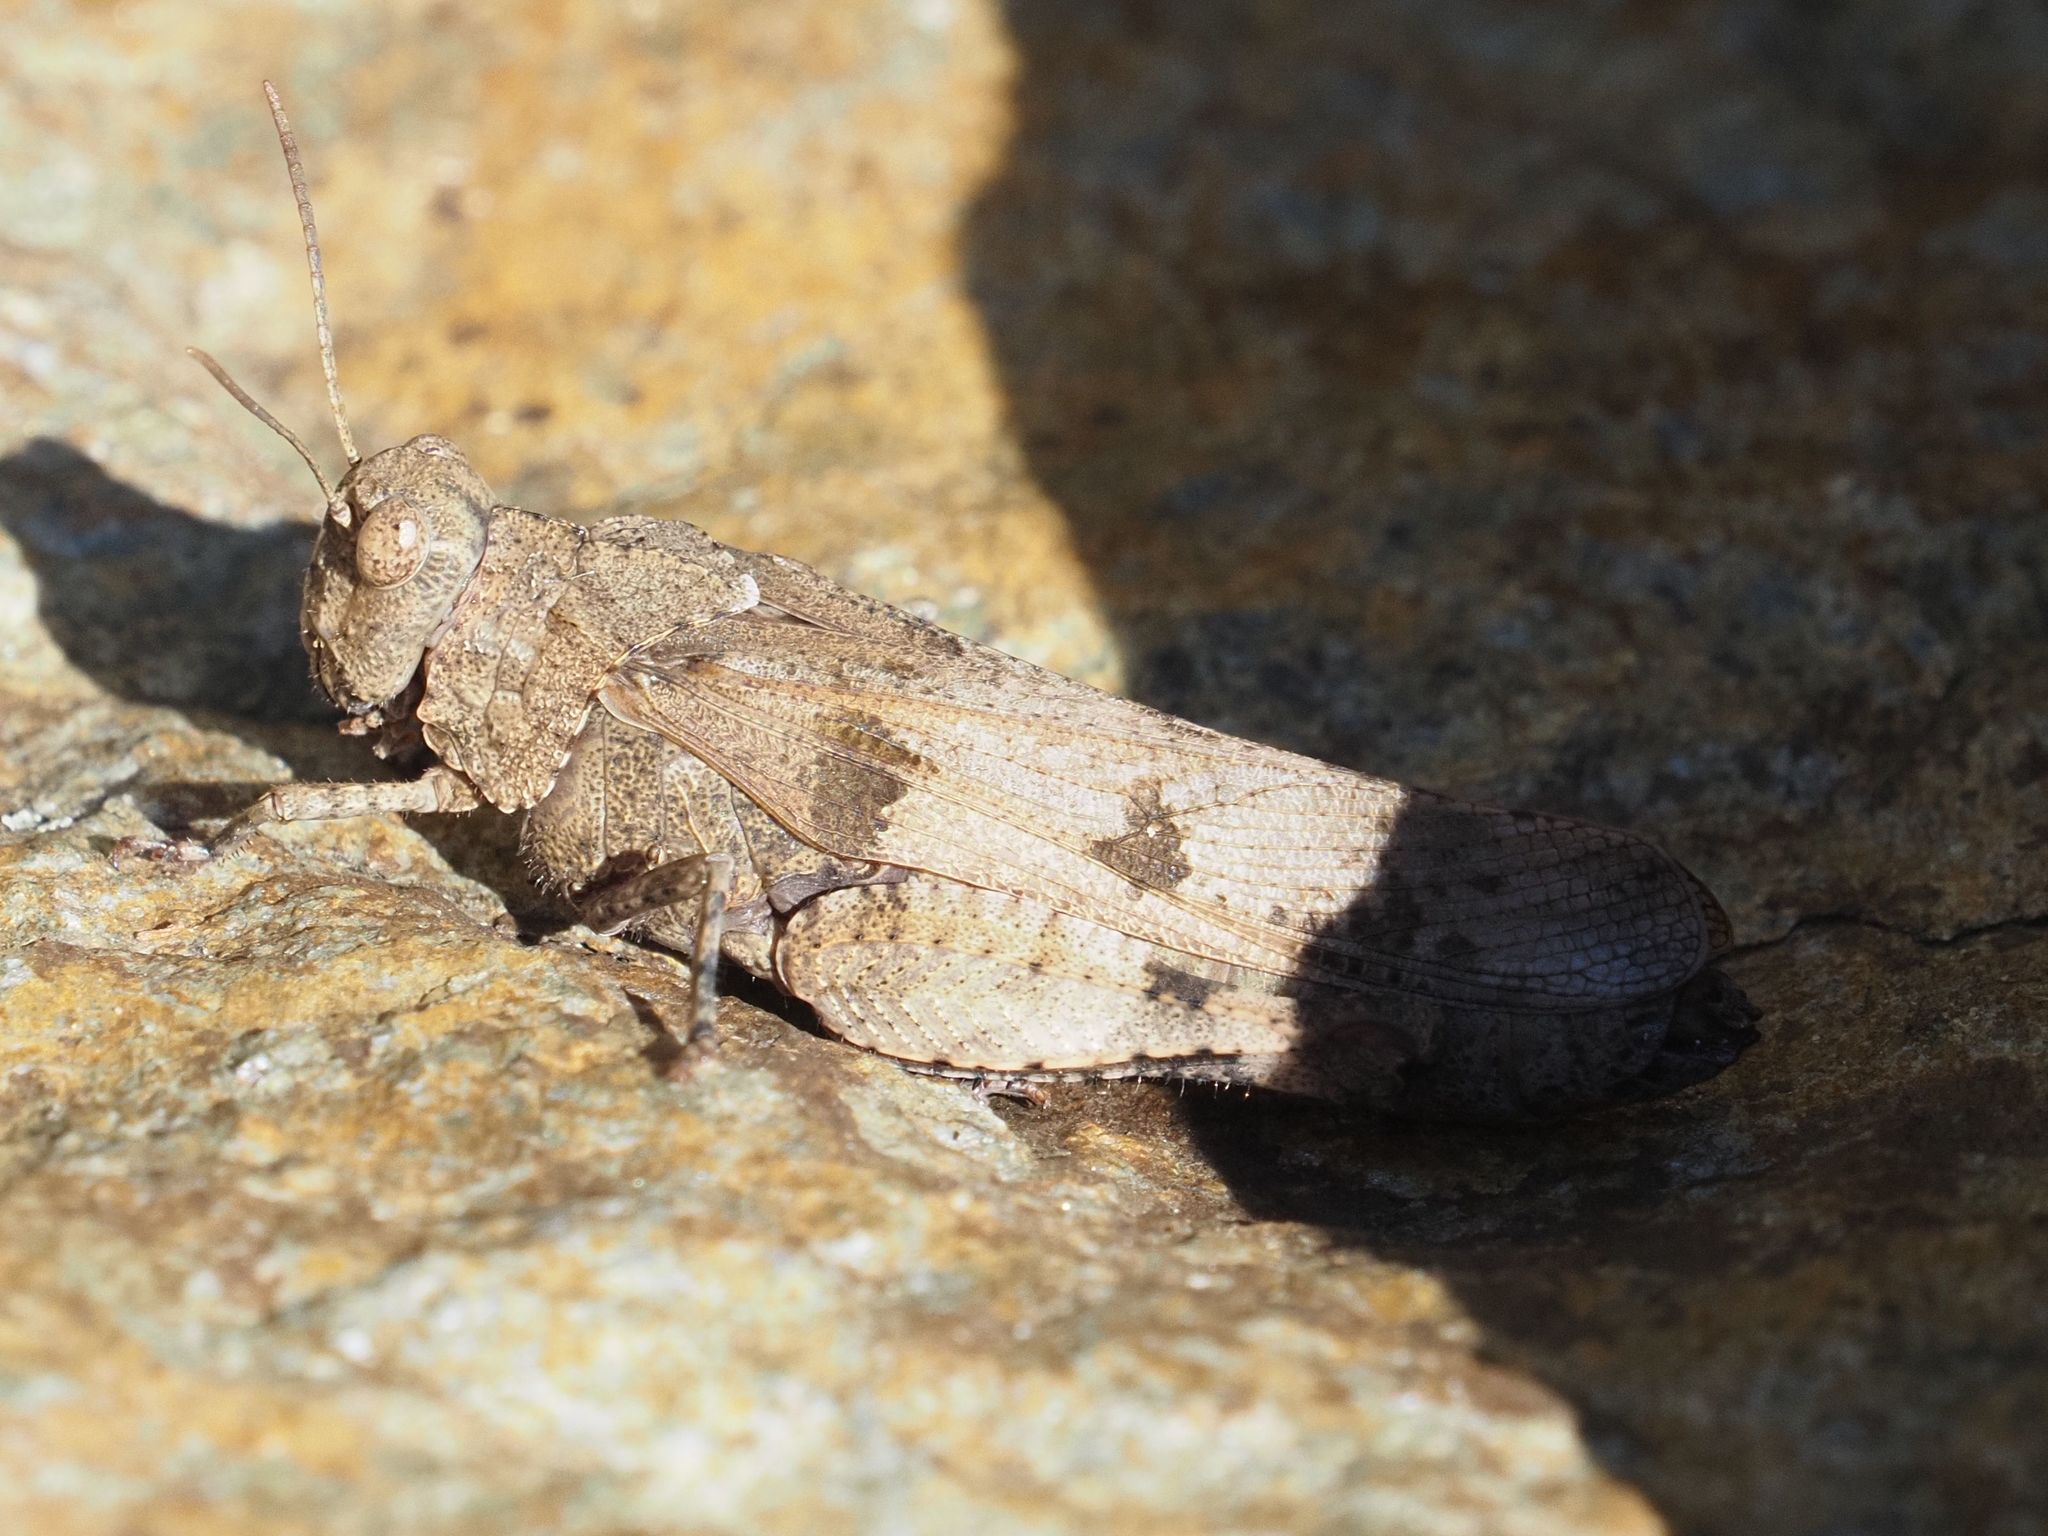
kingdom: Animalia
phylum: Arthropoda
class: Insecta
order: Orthoptera
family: Acrididae
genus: Oedipoda
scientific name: Oedipoda caerulescens
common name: Blue-winged grasshopper
